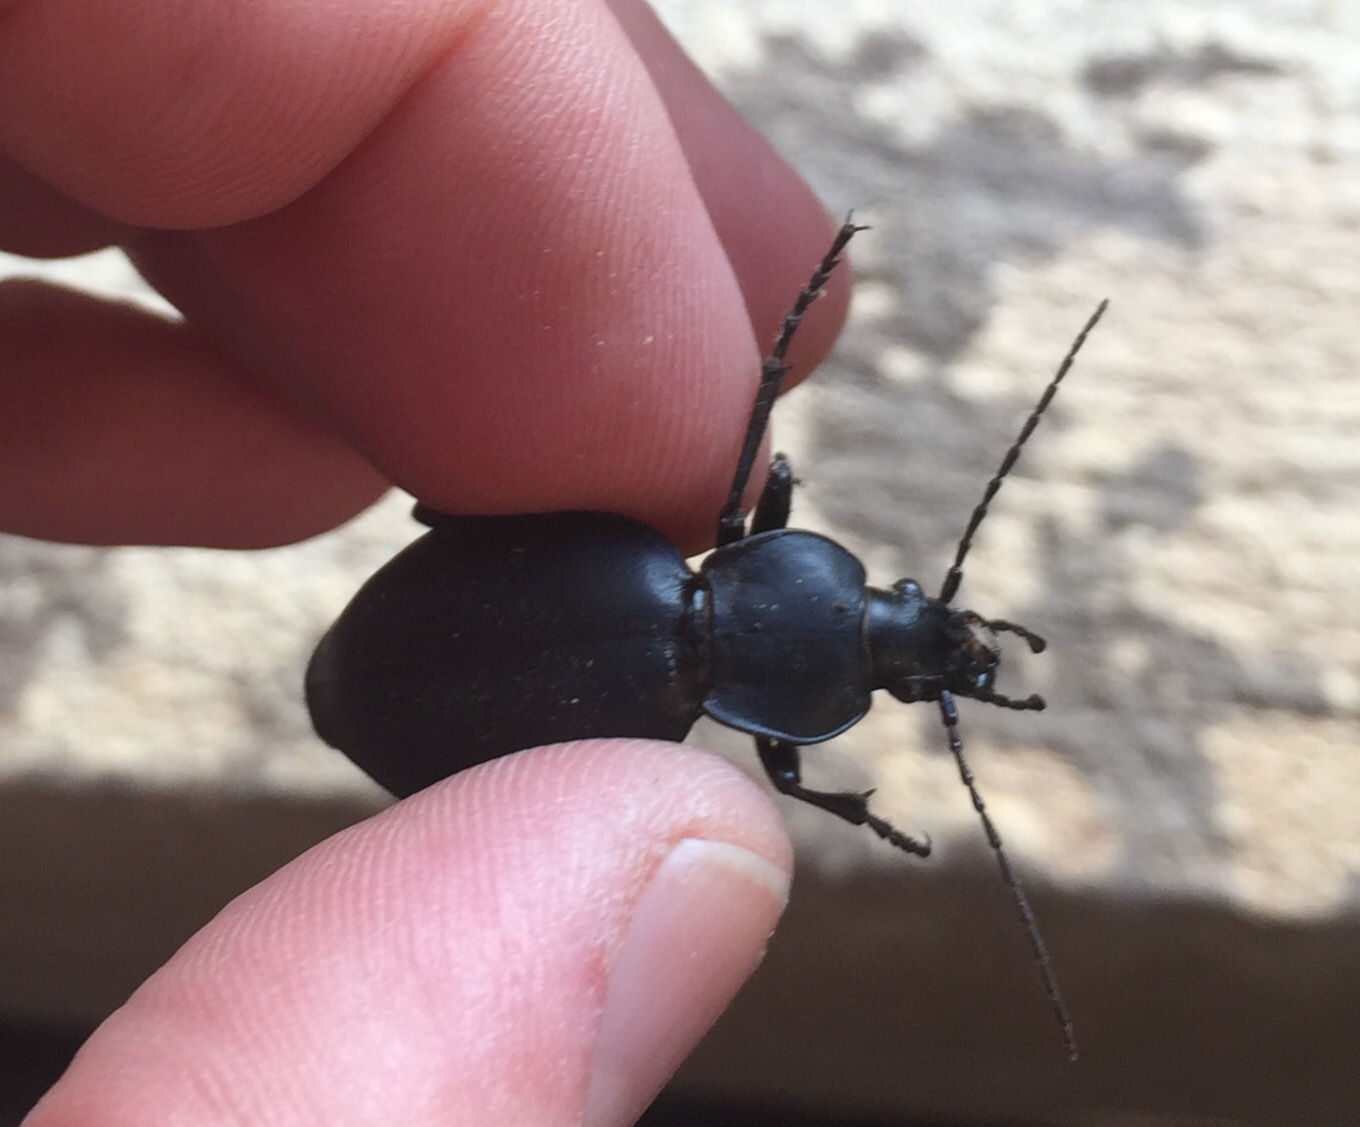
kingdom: Animalia
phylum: Arthropoda
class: Insecta
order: Coleoptera
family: Carabidae
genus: Carabus
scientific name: Carabus coriaceus
